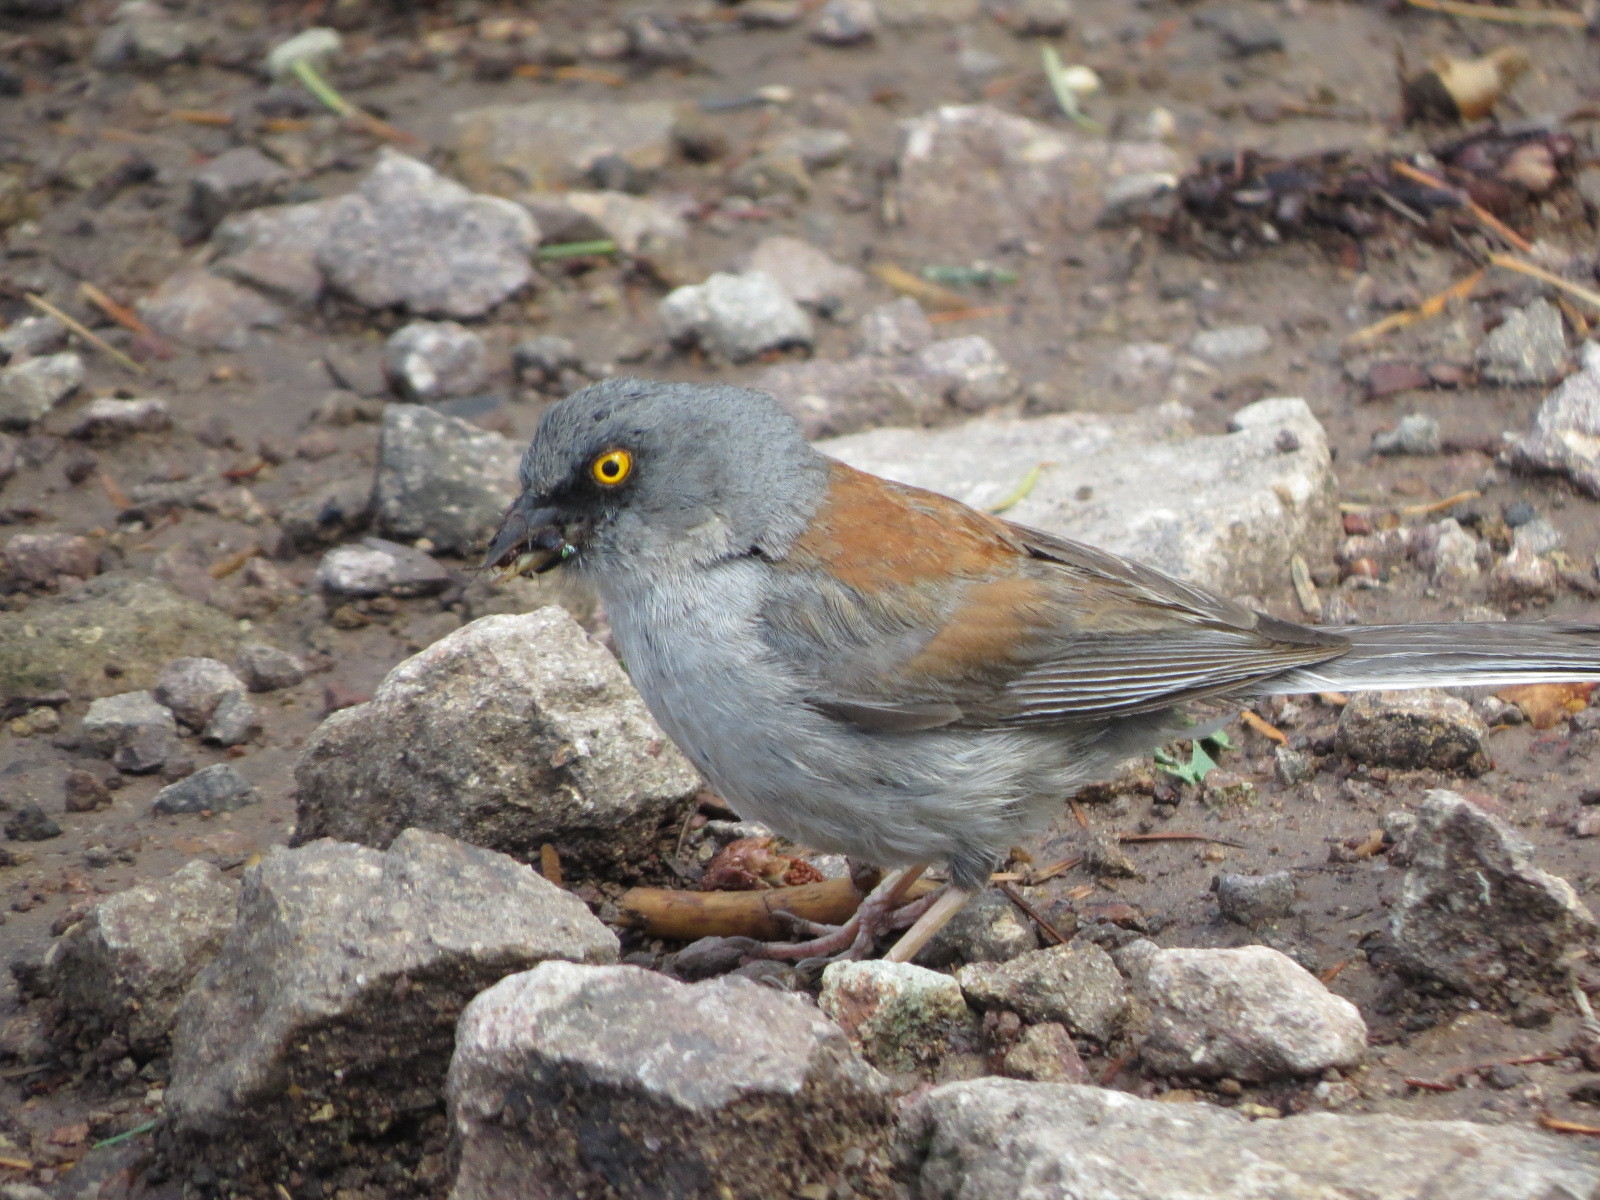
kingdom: Animalia
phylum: Chordata
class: Aves
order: Passeriformes
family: Passerellidae
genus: Junco
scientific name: Junco phaeonotus
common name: Yellow-eyed junco
